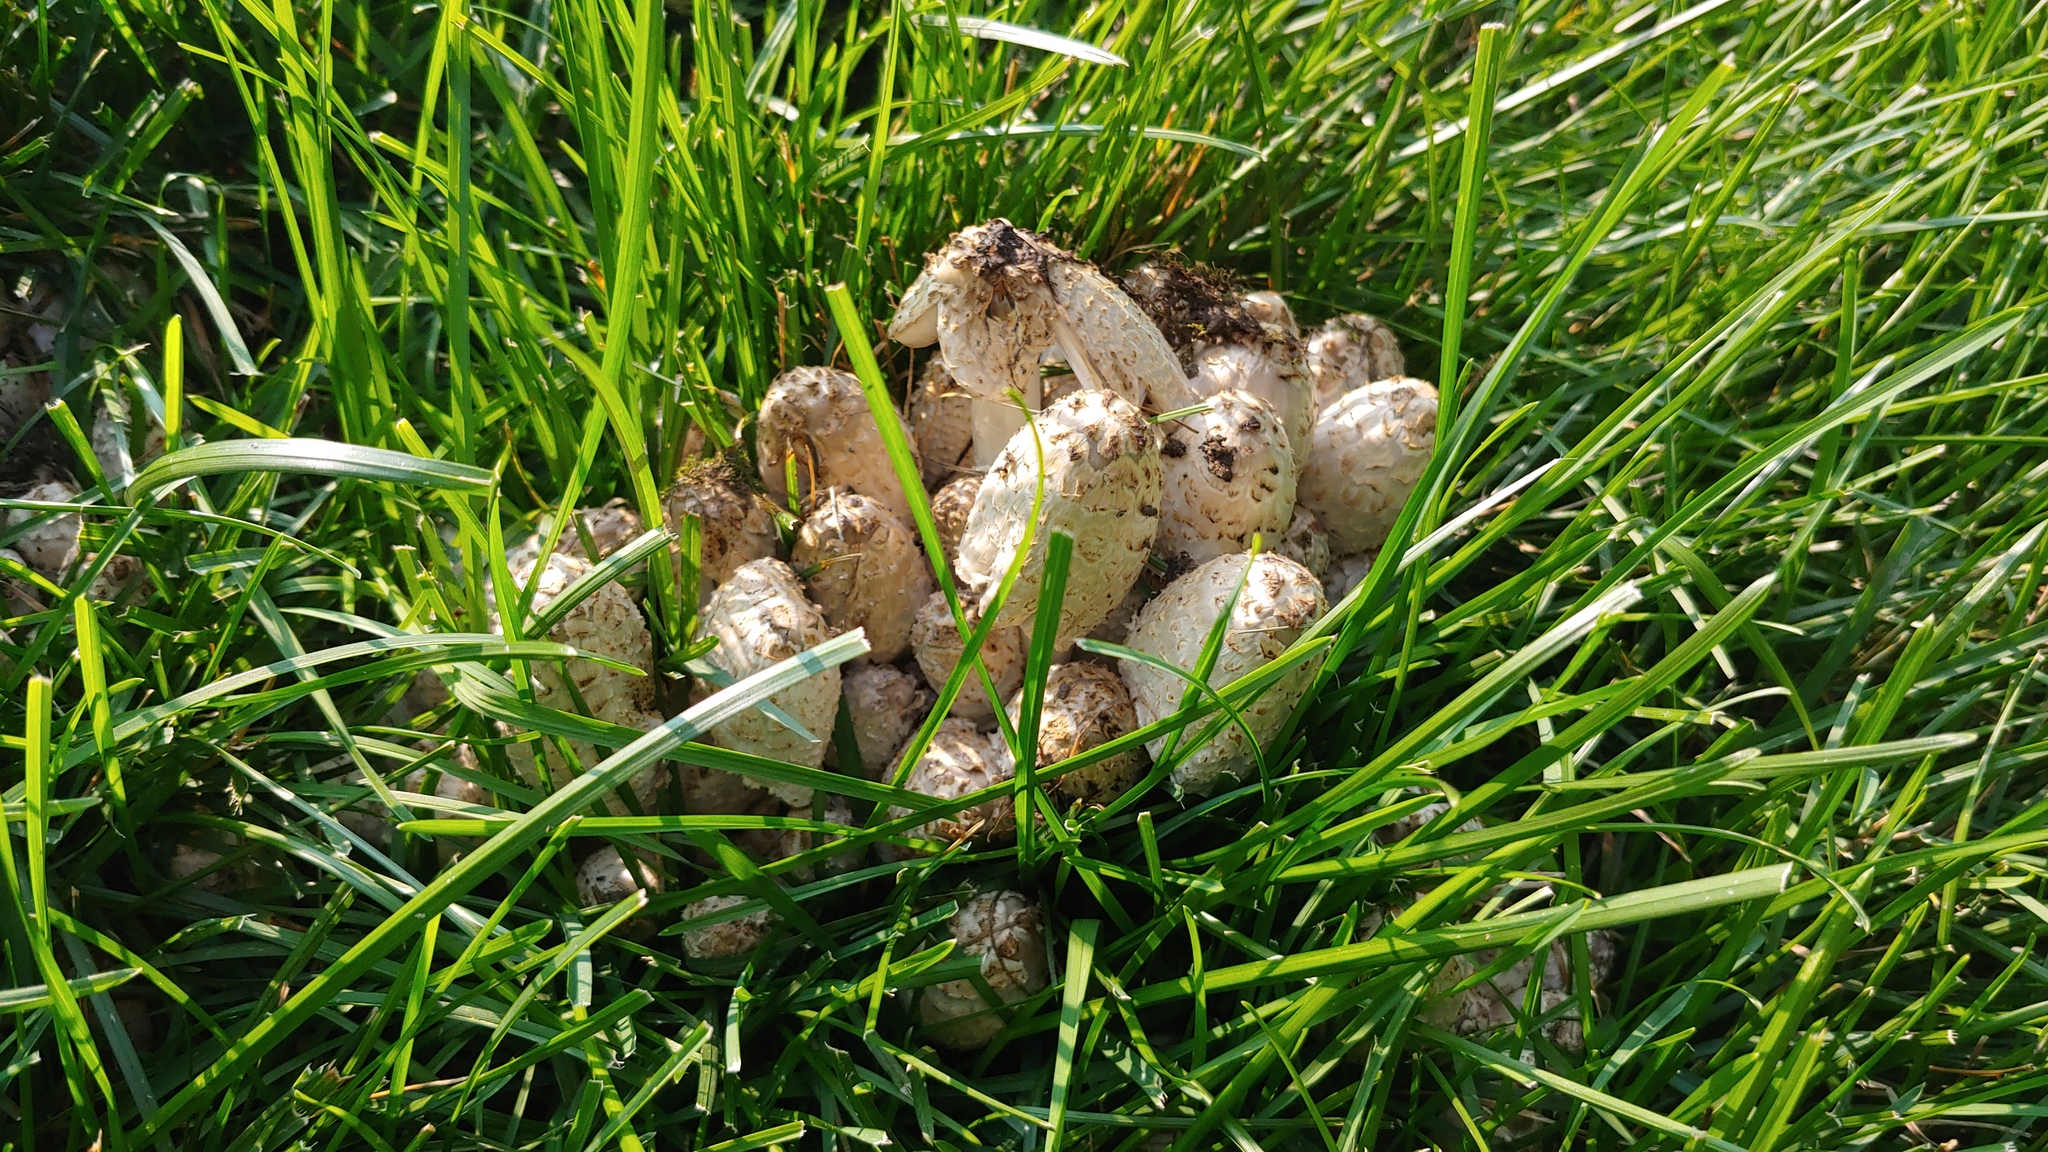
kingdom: Fungi
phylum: Basidiomycota
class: Agaricomycetes
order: Agaricales
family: Psathyrellaceae
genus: Coprinopsis
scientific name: Coprinopsis variegata
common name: Scaly ink cap
